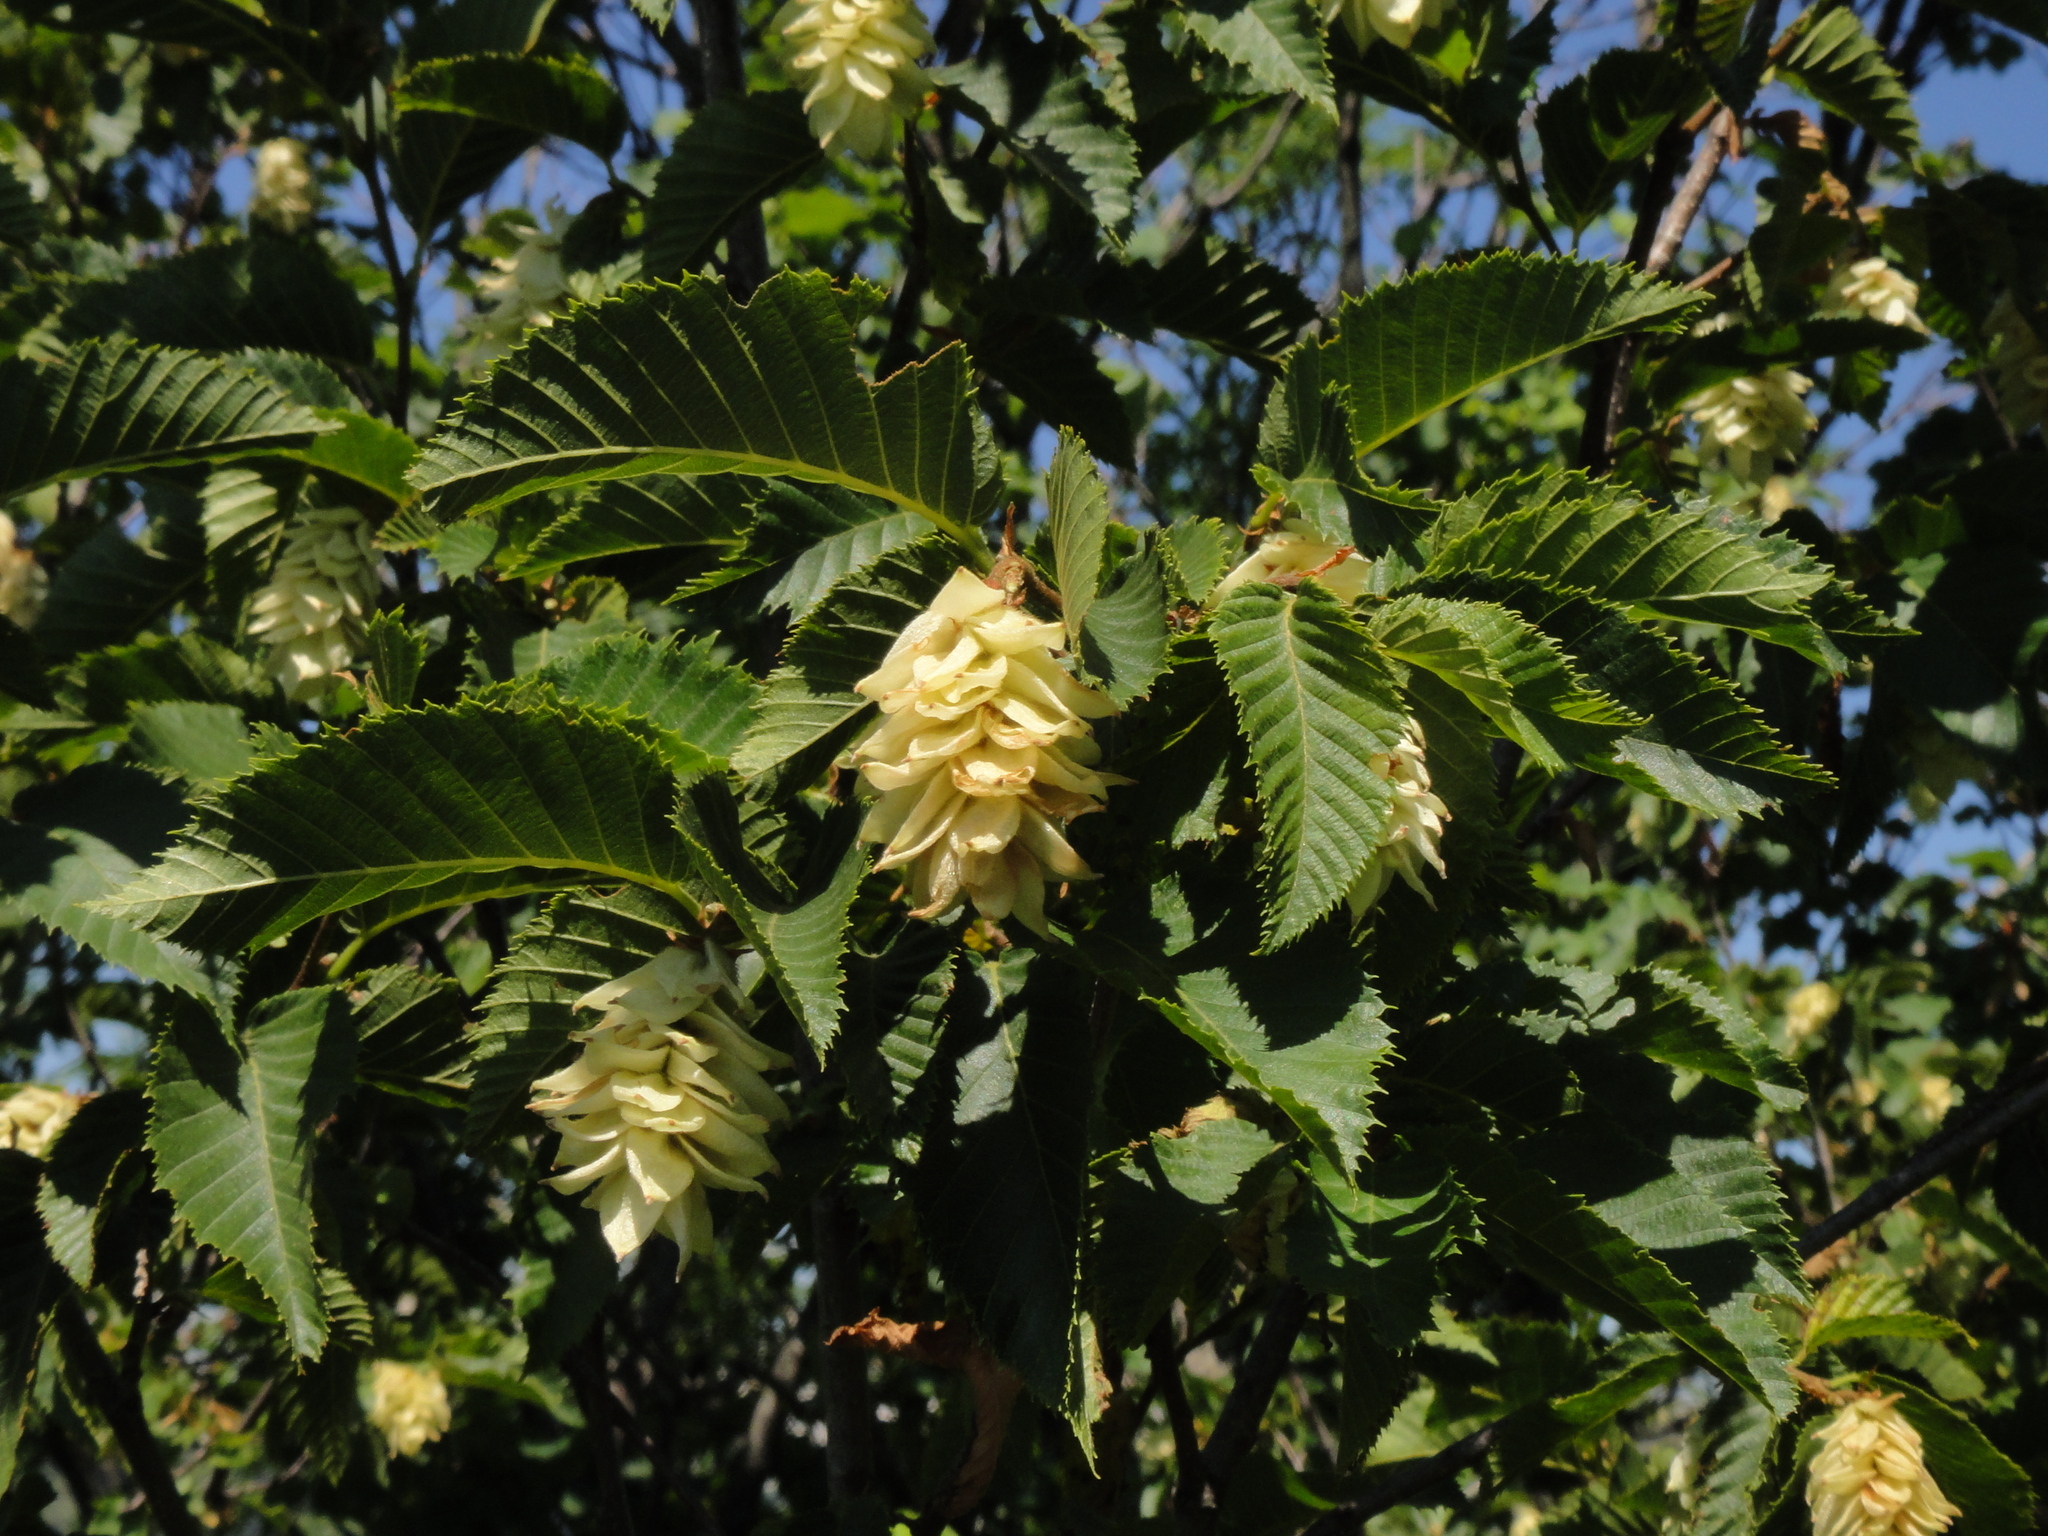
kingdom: Plantae
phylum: Tracheophyta
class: Magnoliopsida
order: Fagales
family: Betulaceae
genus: Ostrya
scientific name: Ostrya carpinifolia
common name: European hop-hornbeam
